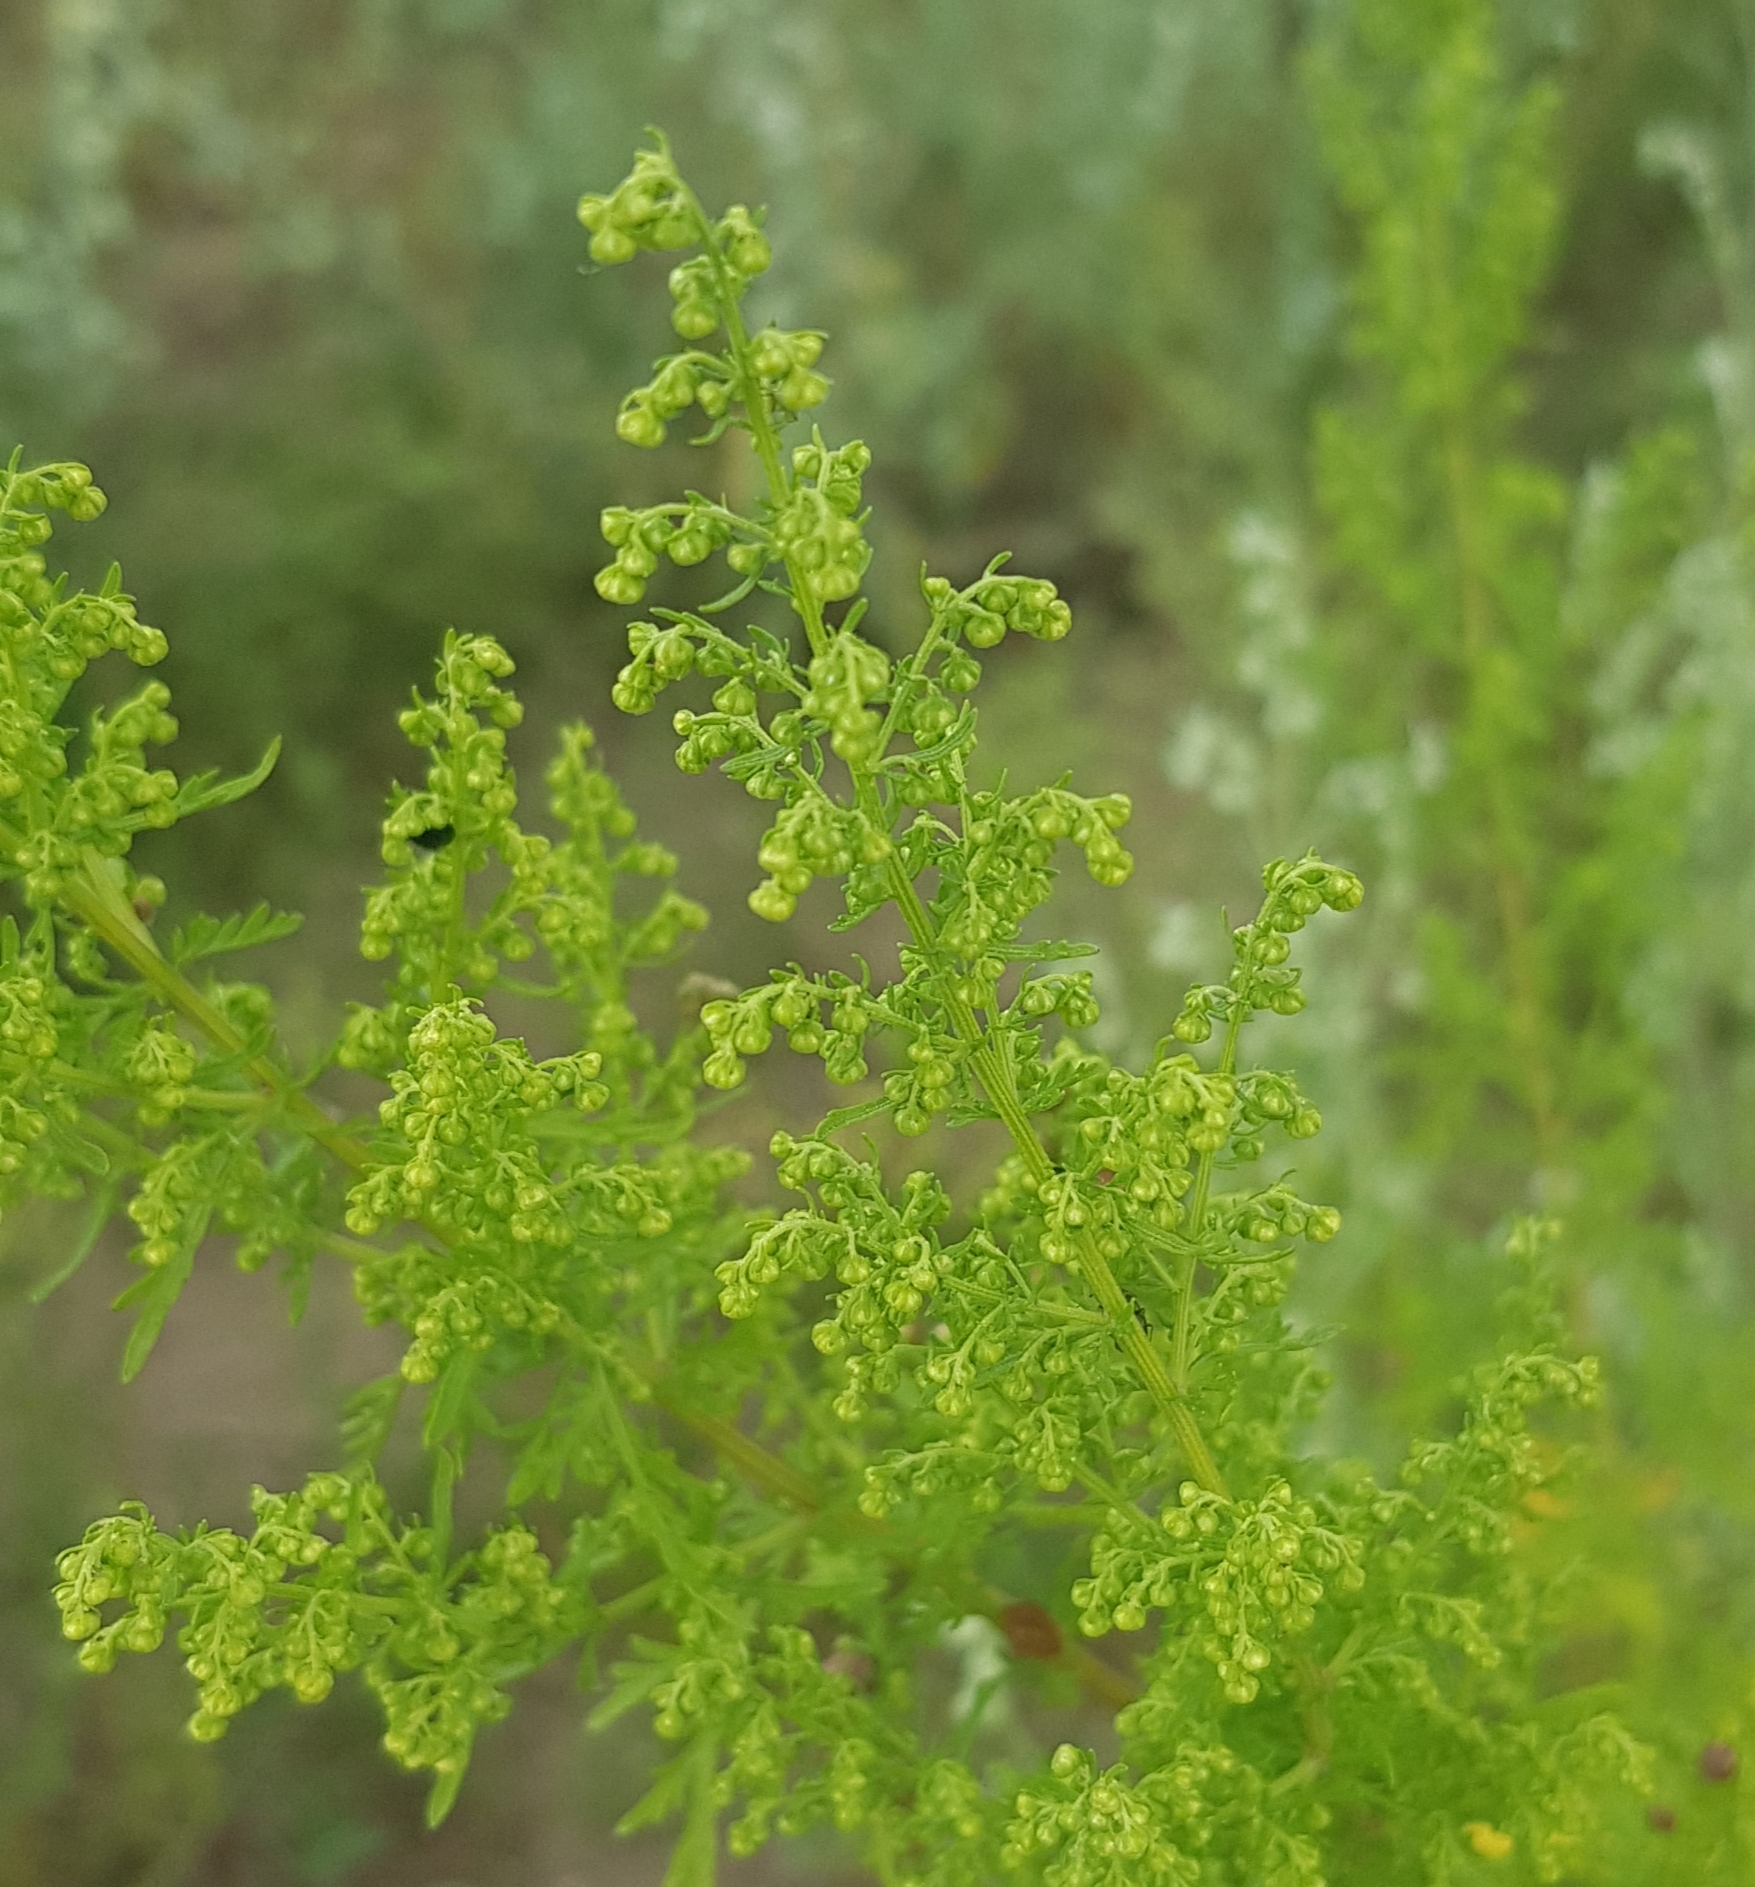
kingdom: Plantae
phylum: Tracheophyta
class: Magnoliopsida
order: Asterales
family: Asteraceae
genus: Artemisia
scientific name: Artemisia annua
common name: Sweet sagewort
